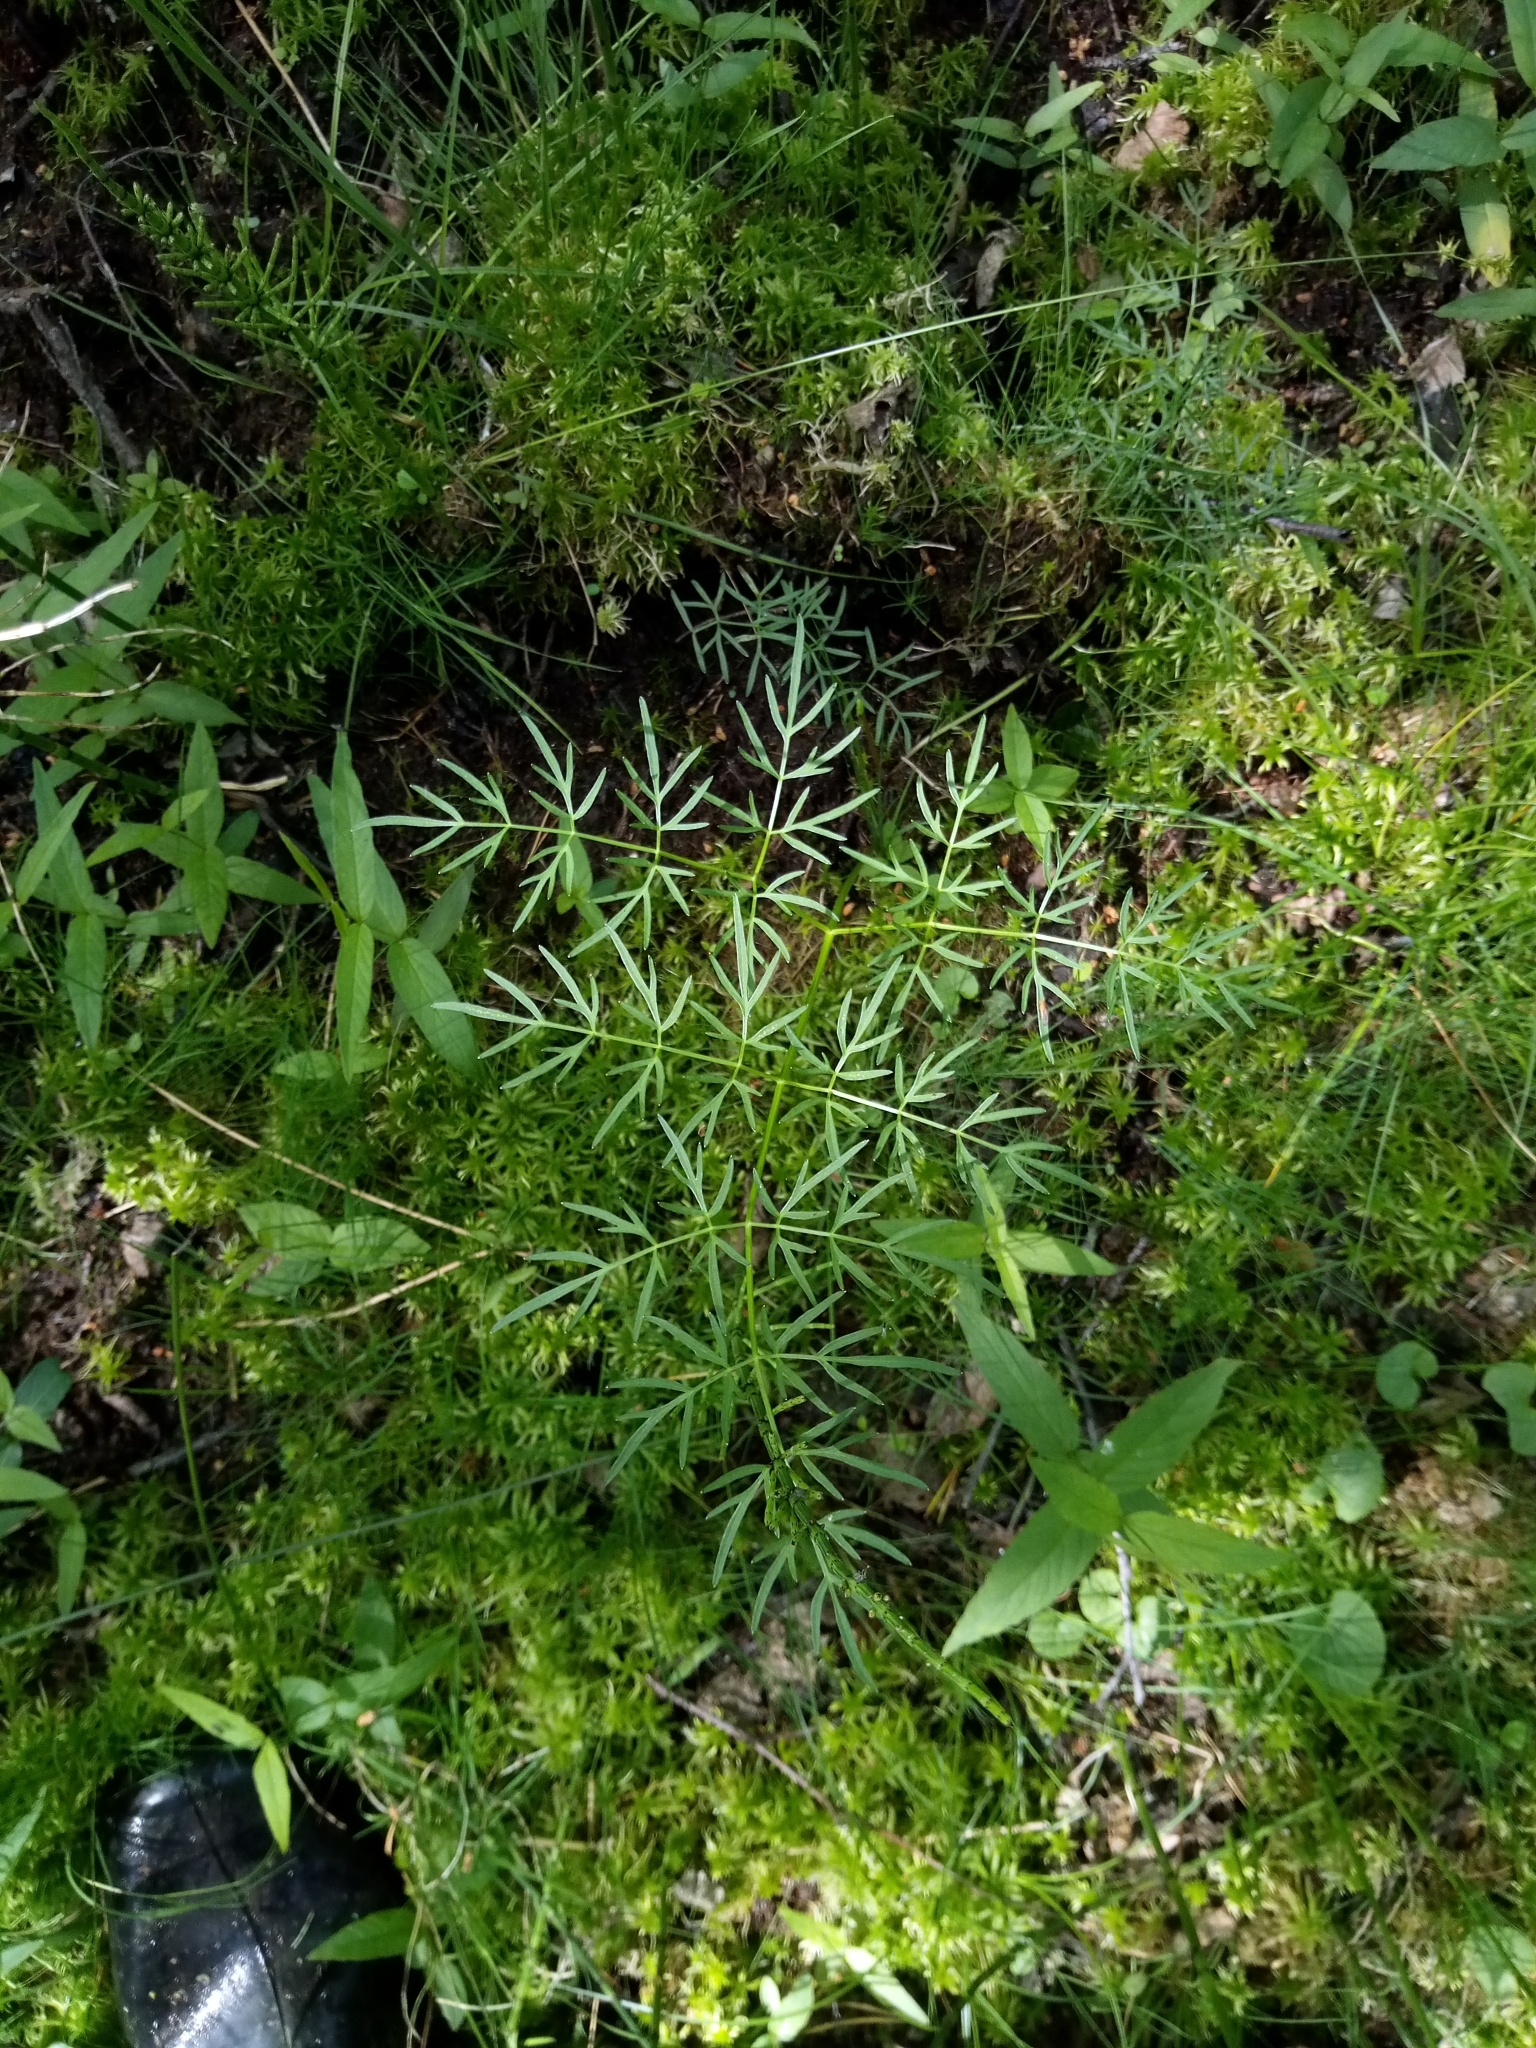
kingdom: Plantae
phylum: Tracheophyta
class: Magnoliopsida
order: Apiales
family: Apiaceae
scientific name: Apiaceae
